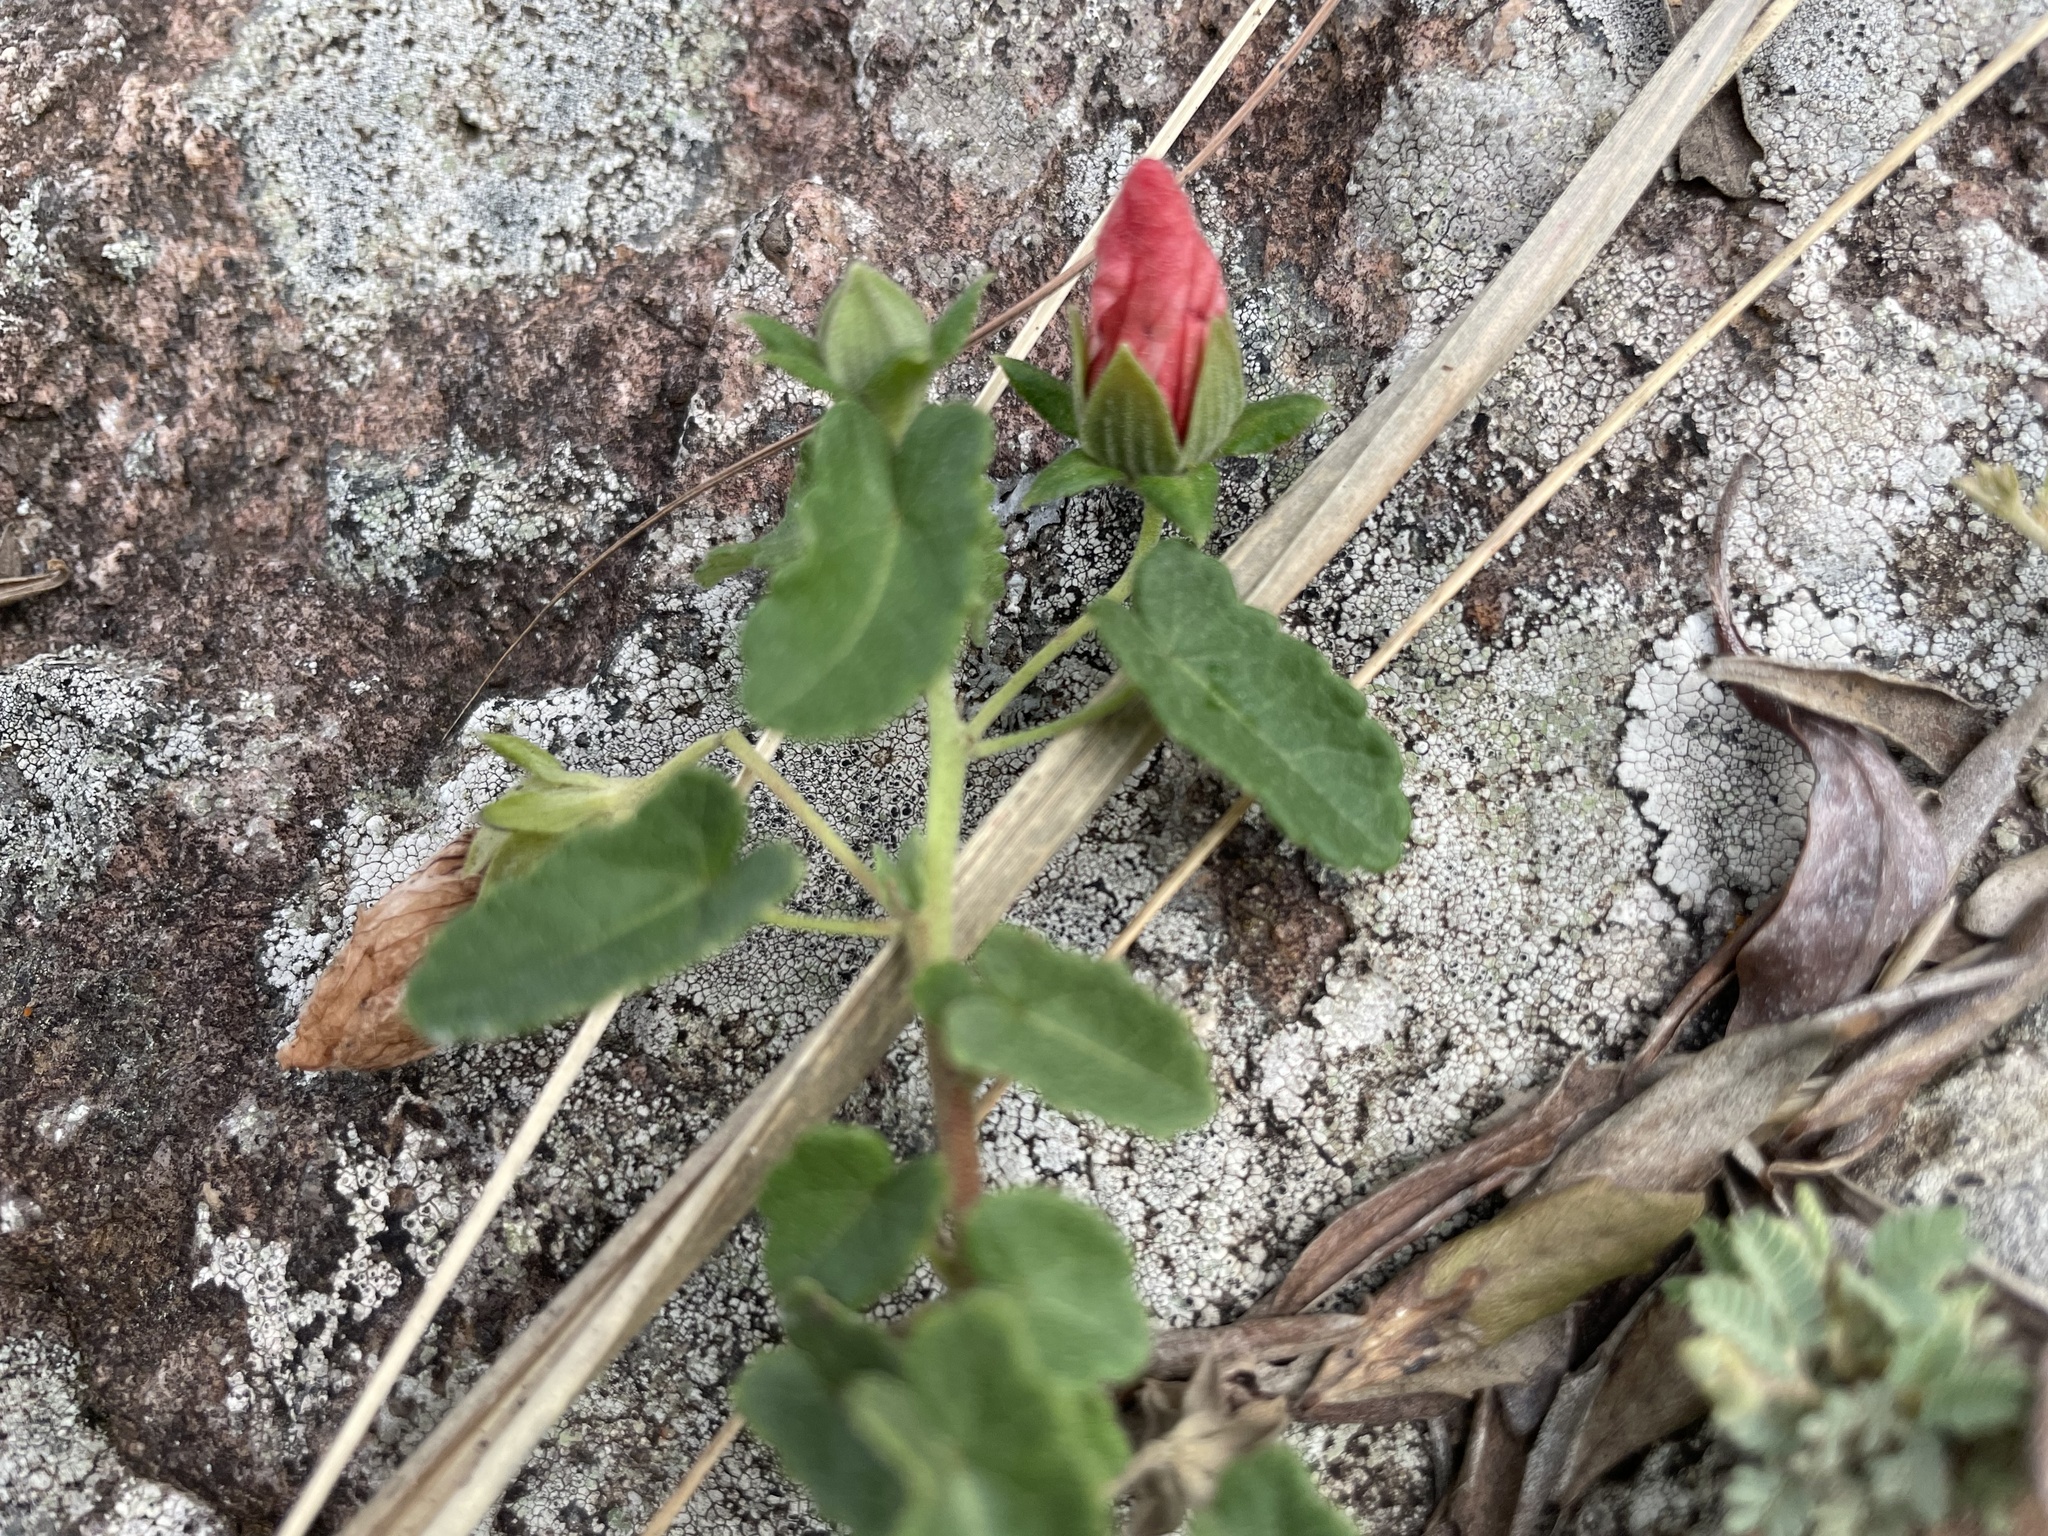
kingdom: Plantae
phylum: Tracheophyta
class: Magnoliopsida
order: Malvales
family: Malvaceae
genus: Pavonia
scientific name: Pavonia cymbalaria
